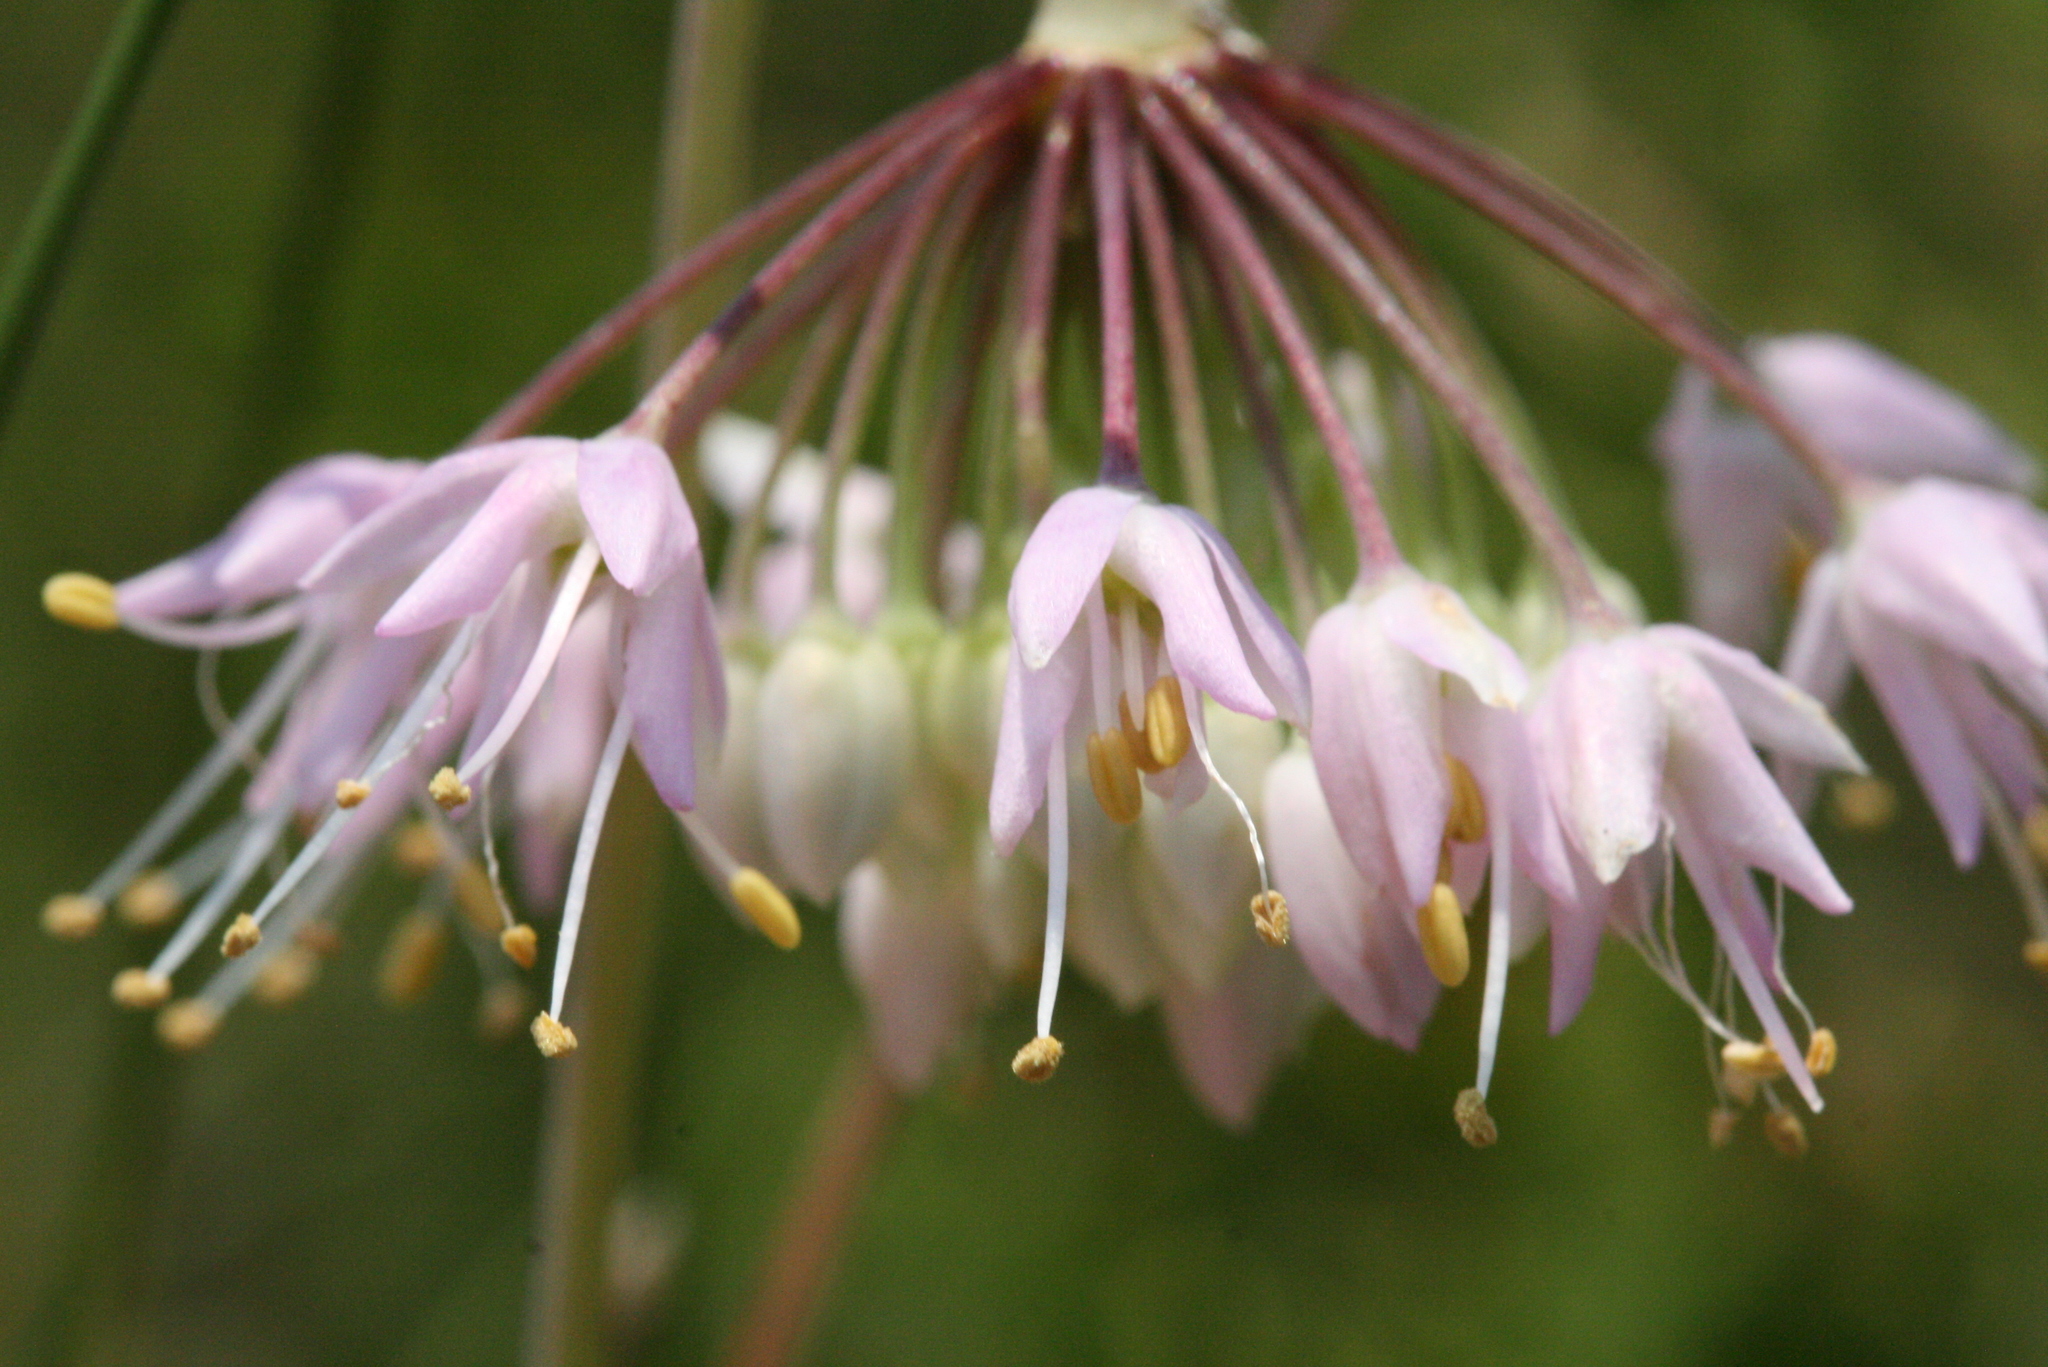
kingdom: Plantae
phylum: Tracheophyta
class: Liliopsida
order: Asparagales
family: Amaryllidaceae
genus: Allium
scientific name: Allium cernuum
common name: Nodding onion
